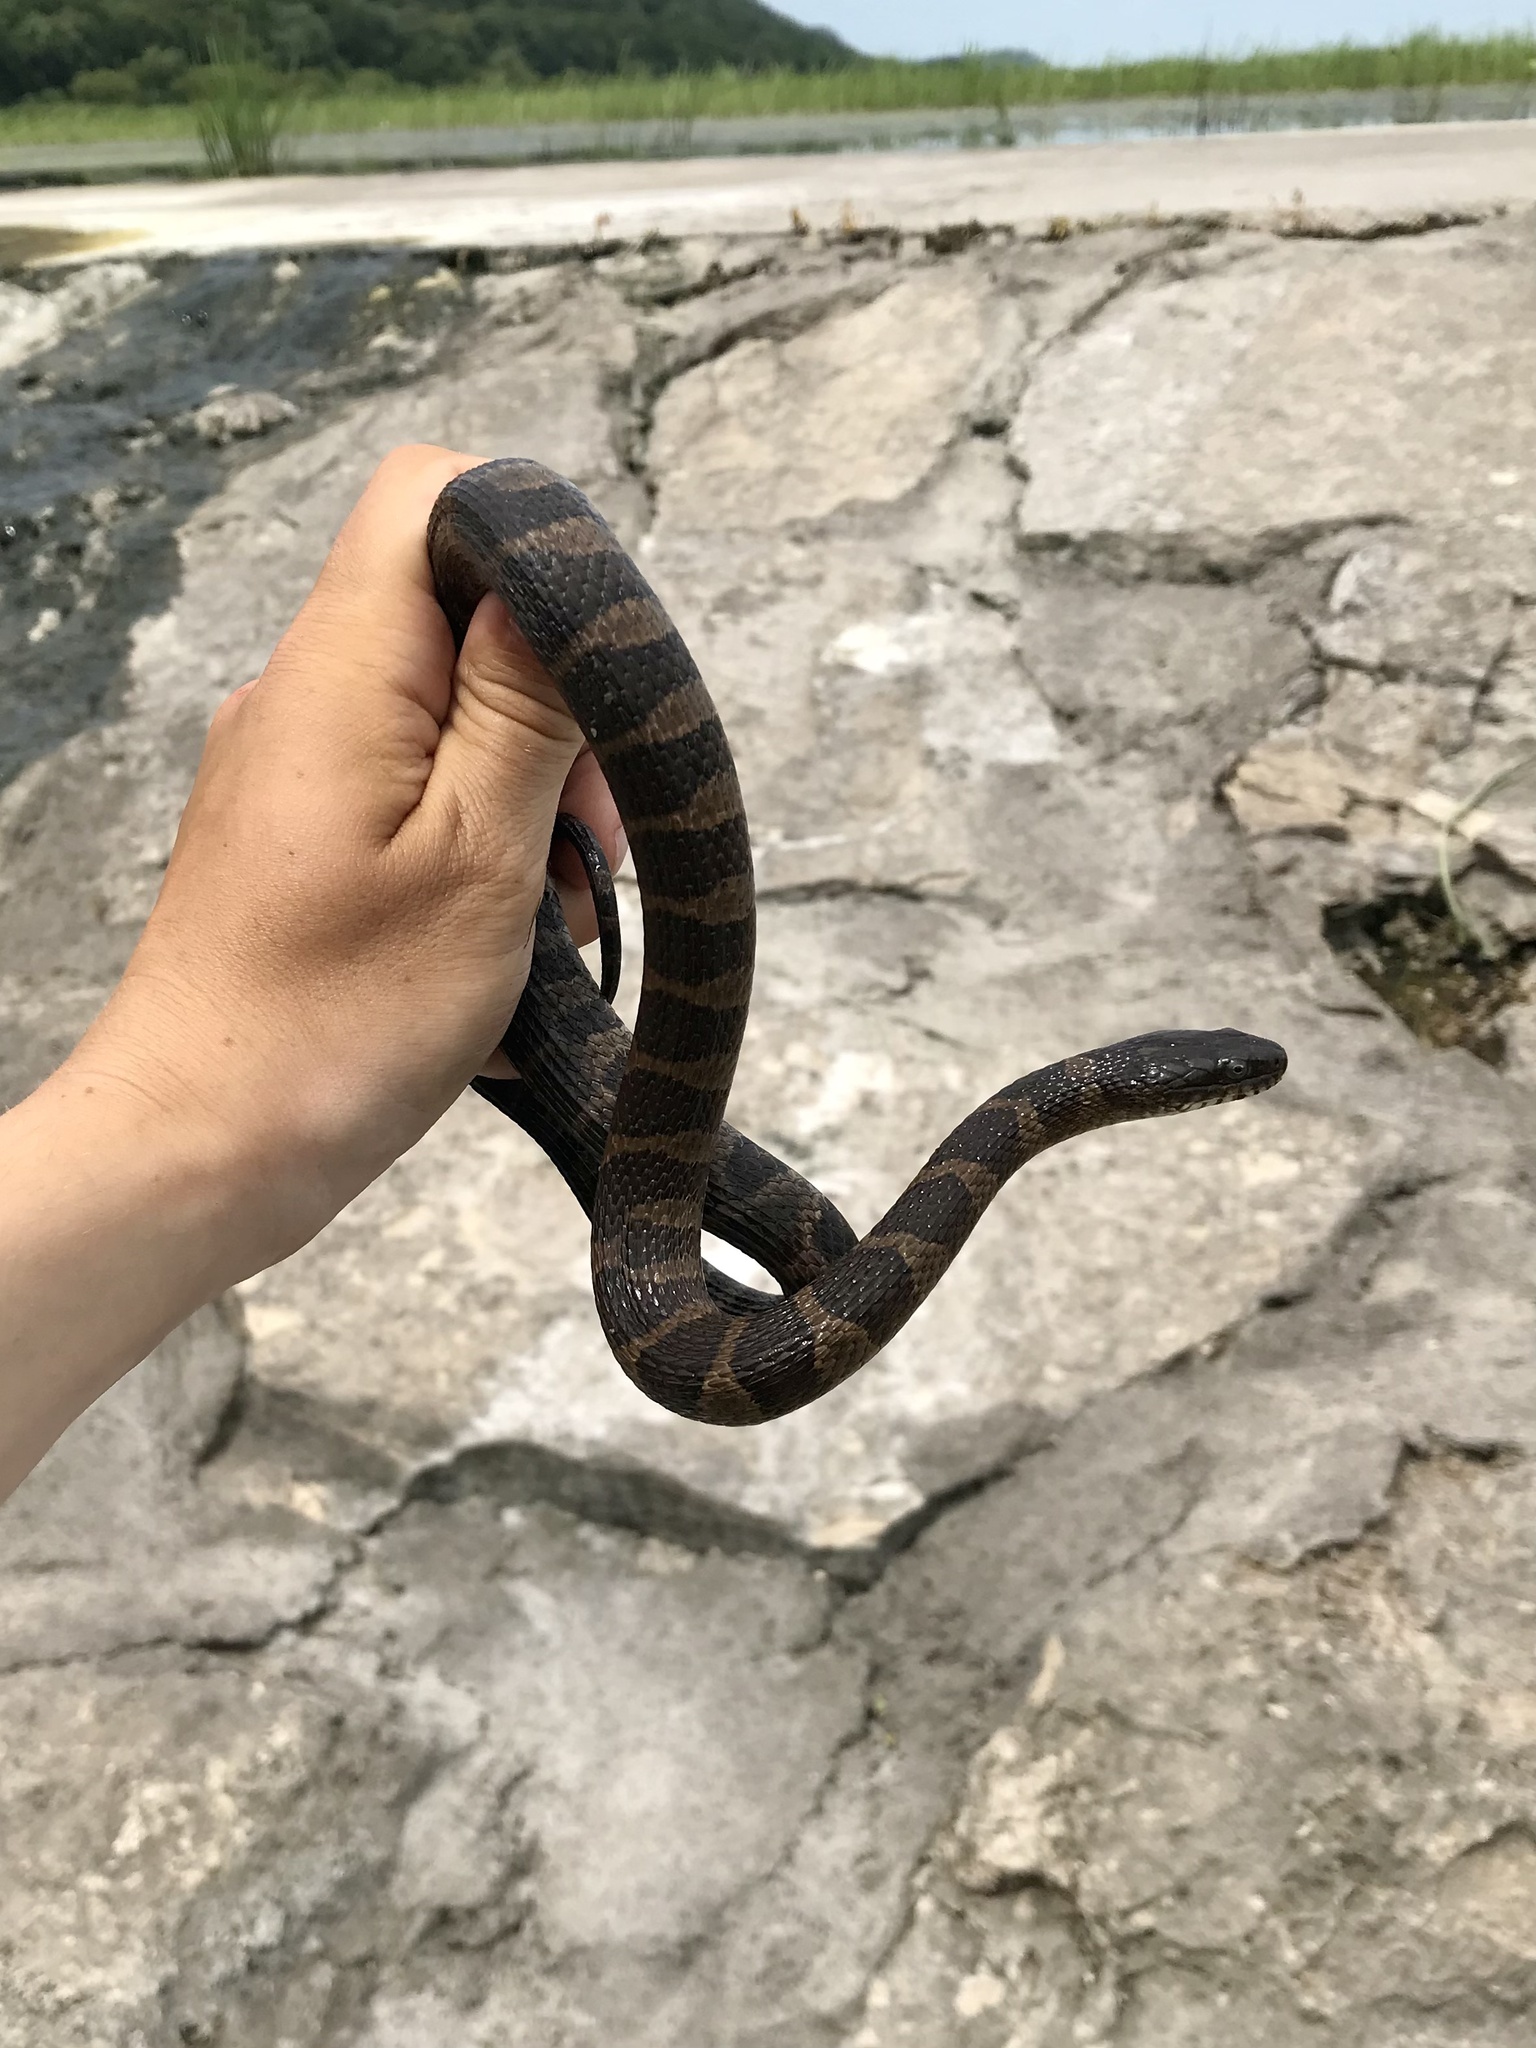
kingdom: Animalia
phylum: Chordata
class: Squamata
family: Colubridae
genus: Nerodia
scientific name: Nerodia sipedon
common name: Northern water snake
